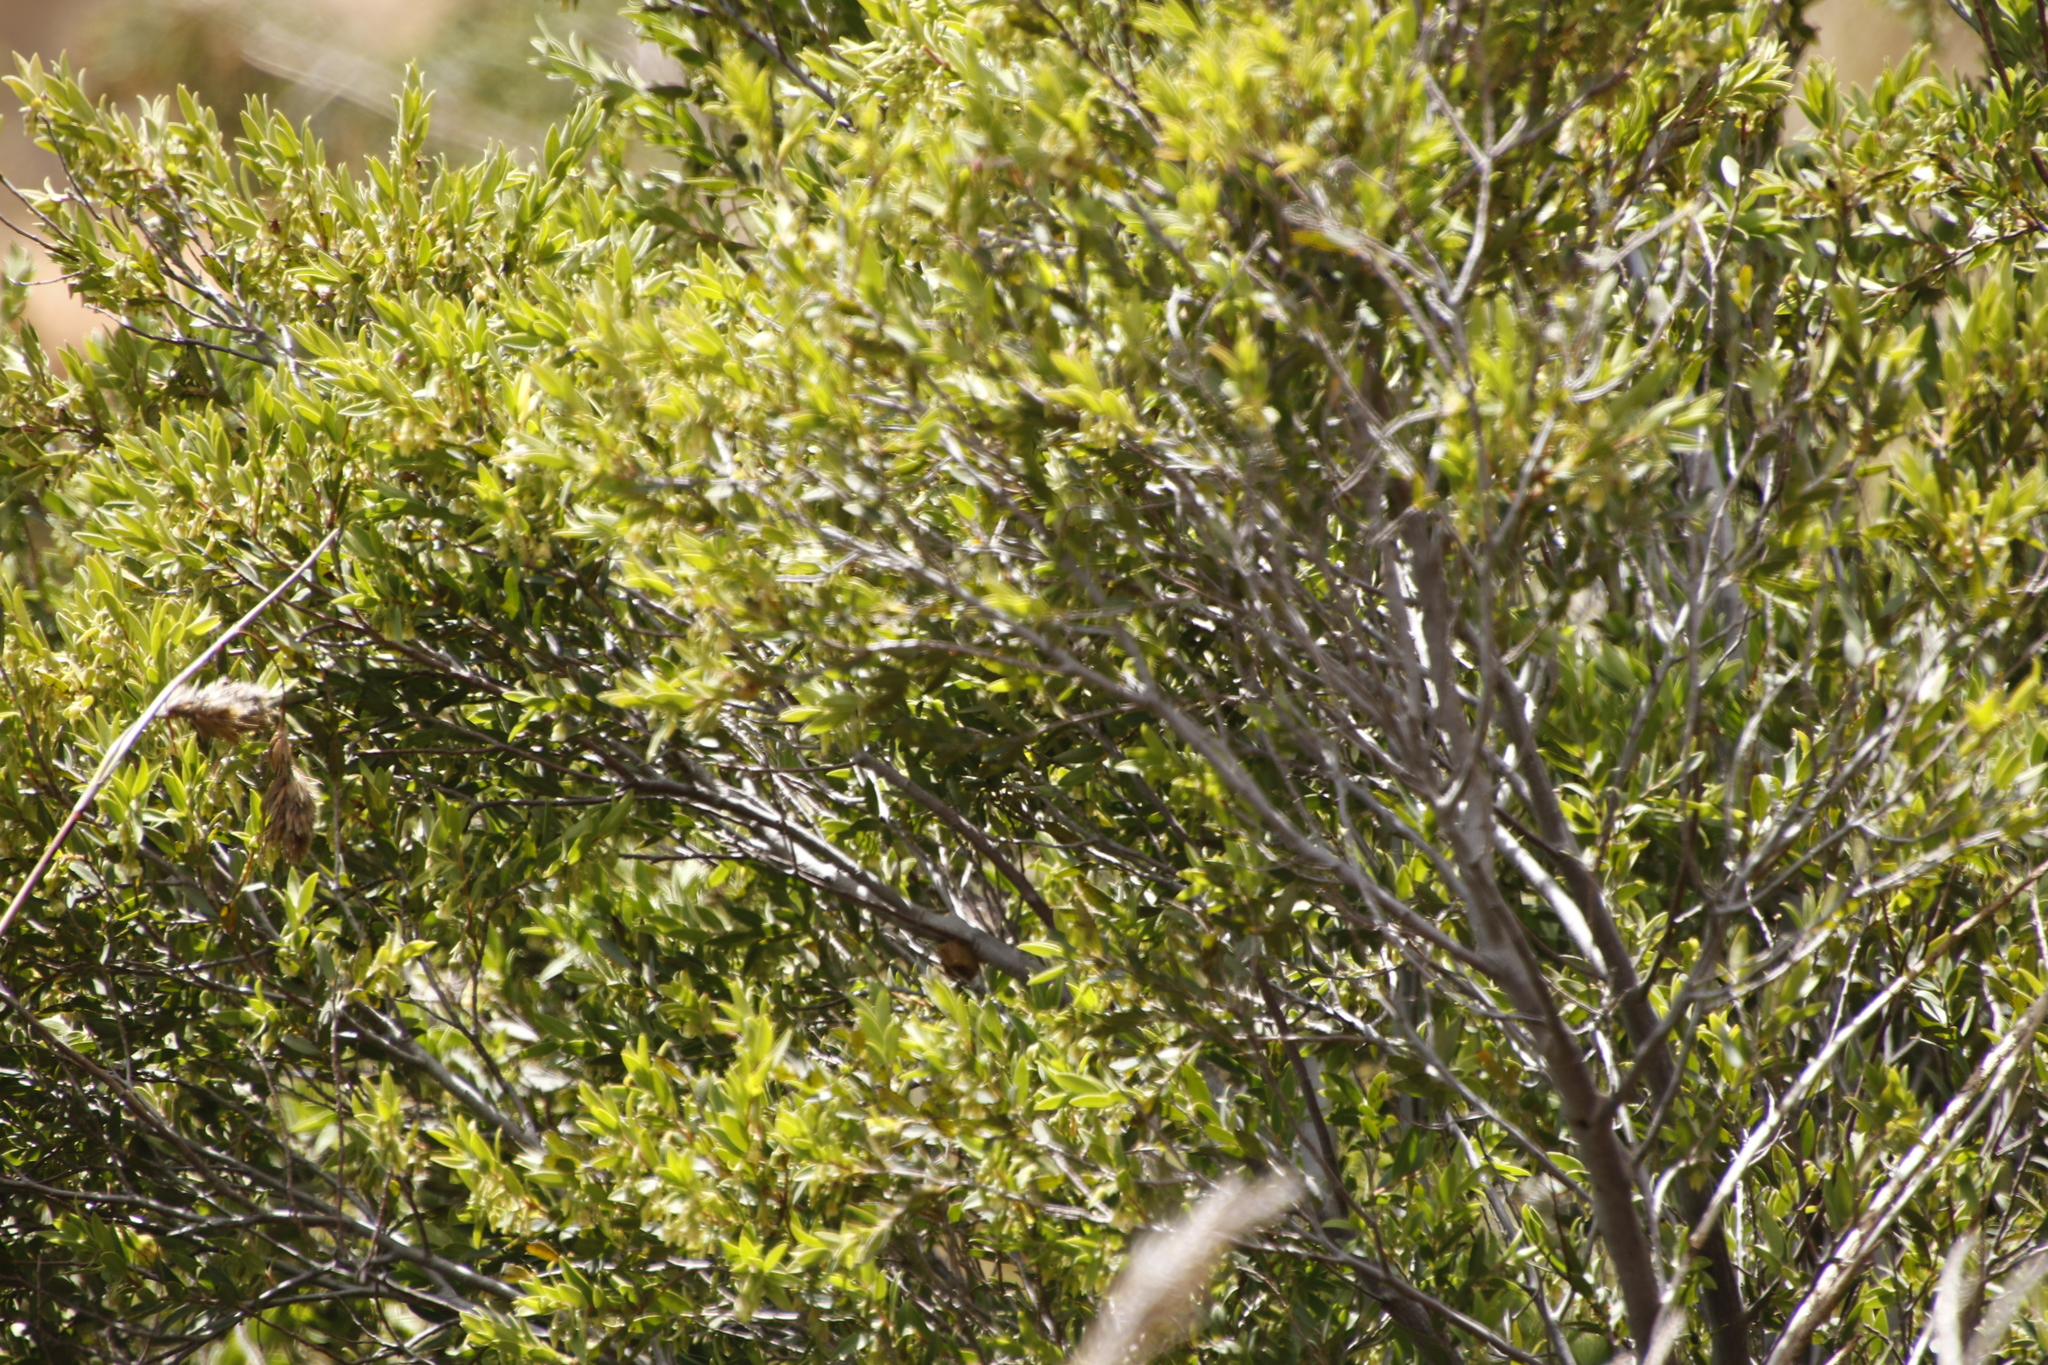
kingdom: Plantae
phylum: Tracheophyta
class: Magnoliopsida
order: Ericales
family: Ebenaceae
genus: Diospyros
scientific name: Diospyros glabra
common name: Fynbos star apple
